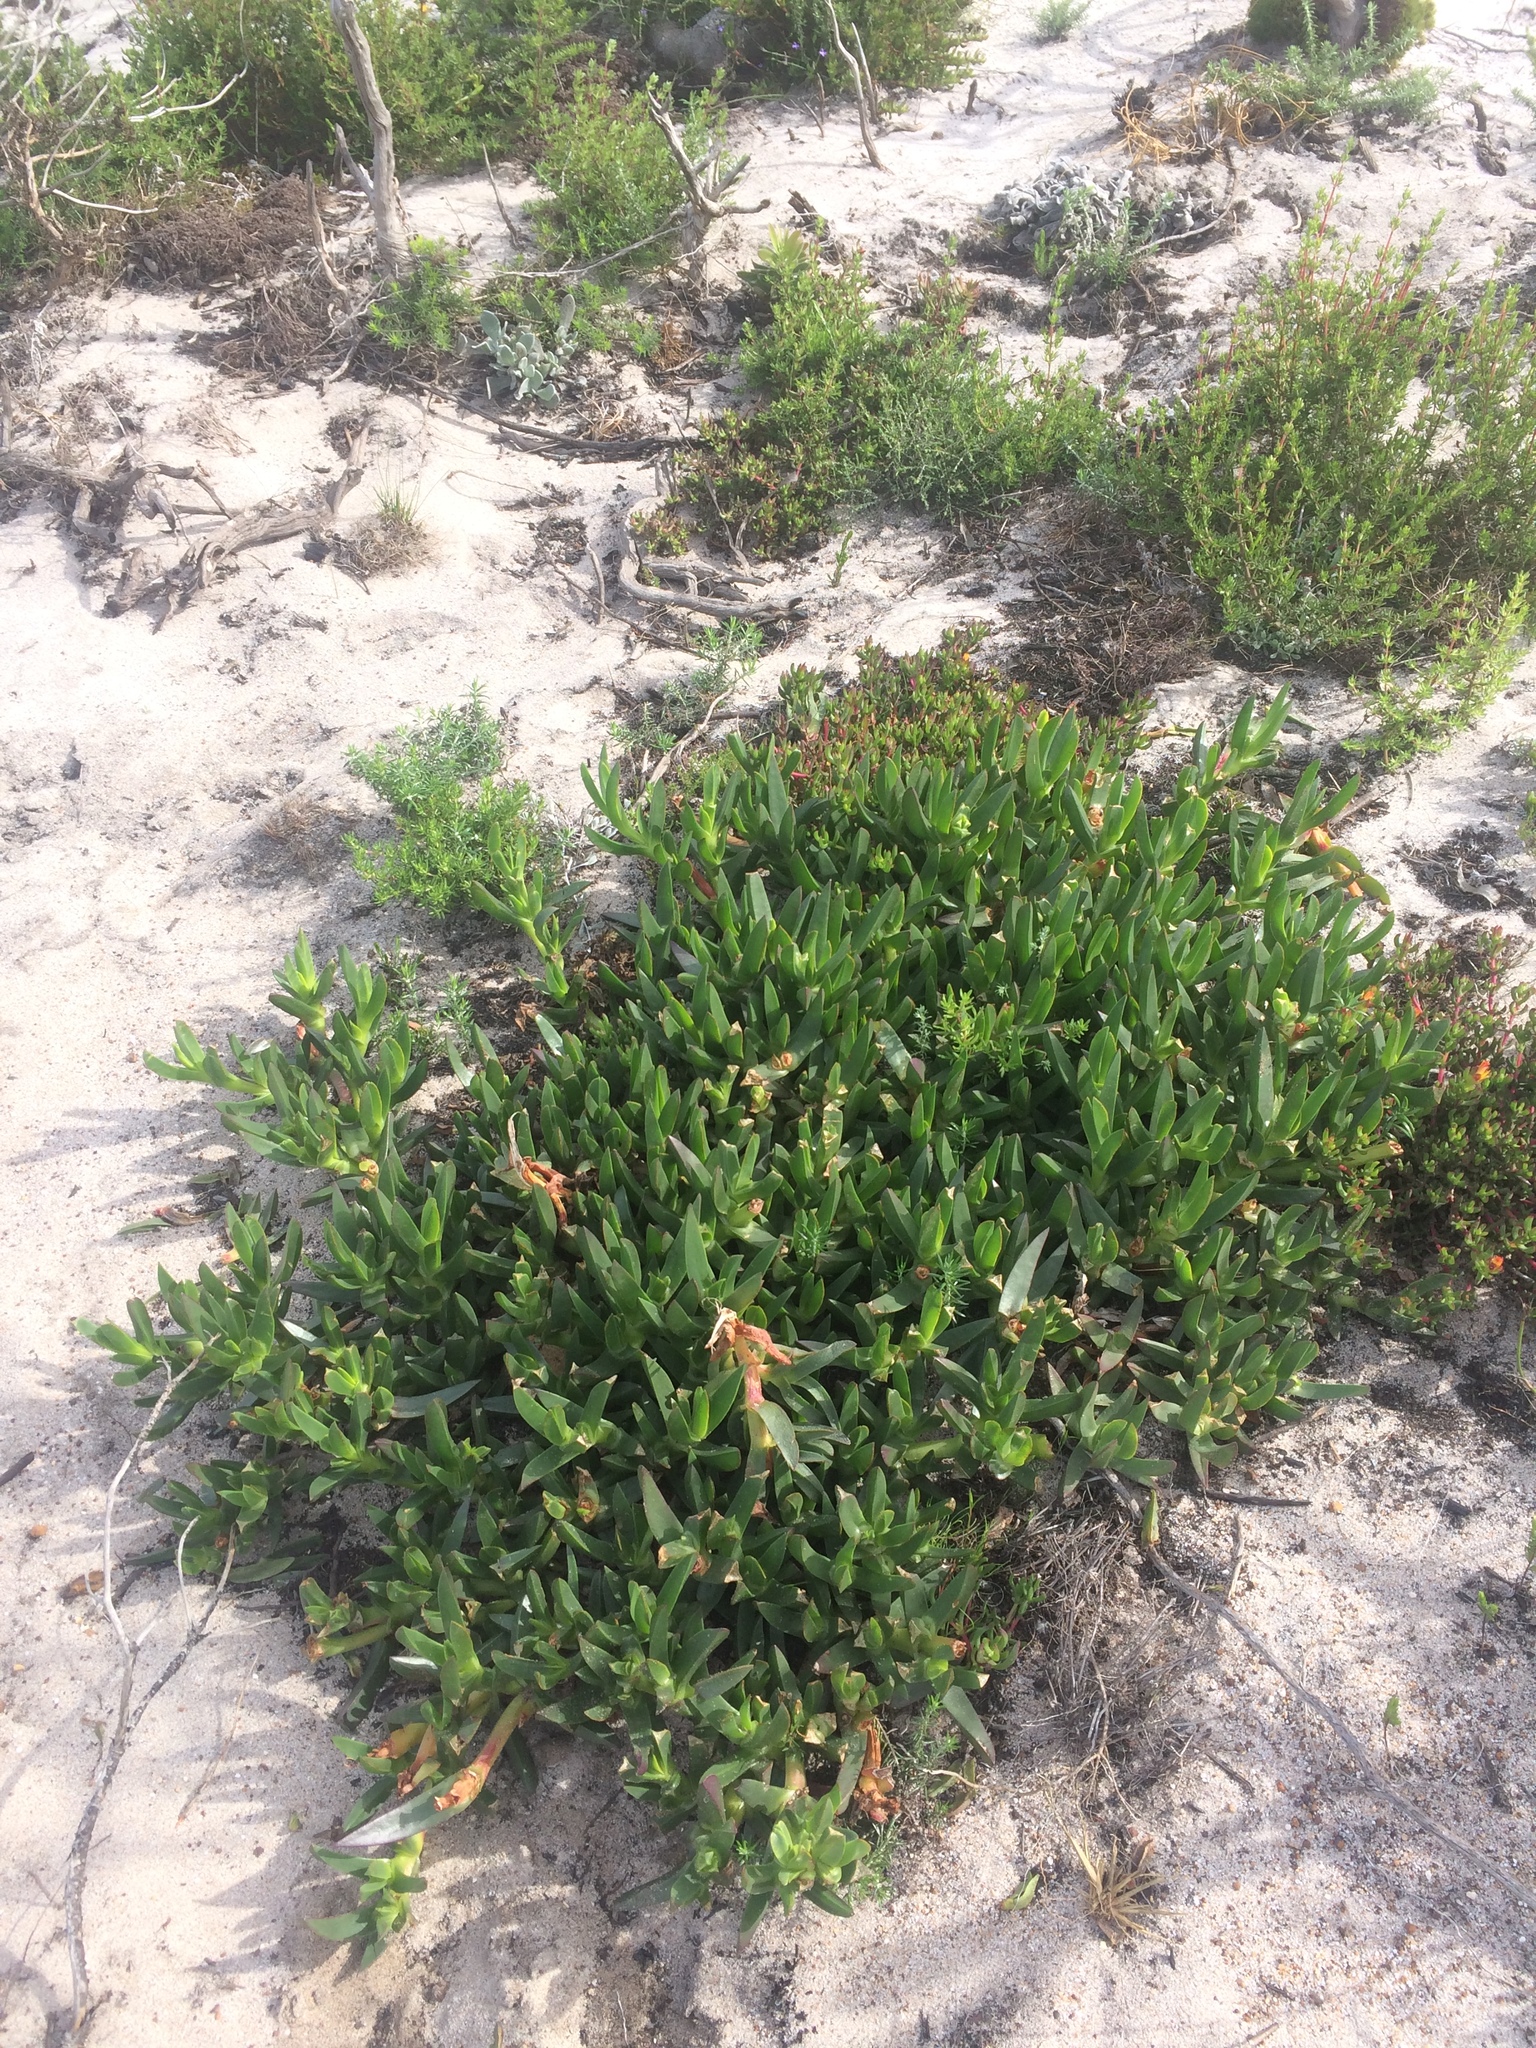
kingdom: Plantae
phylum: Tracheophyta
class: Magnoliopsida
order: Caryophyllales
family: Aizoaceae
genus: Carpobrotus
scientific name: Carpobrotus edulis
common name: Hottentot-fig
